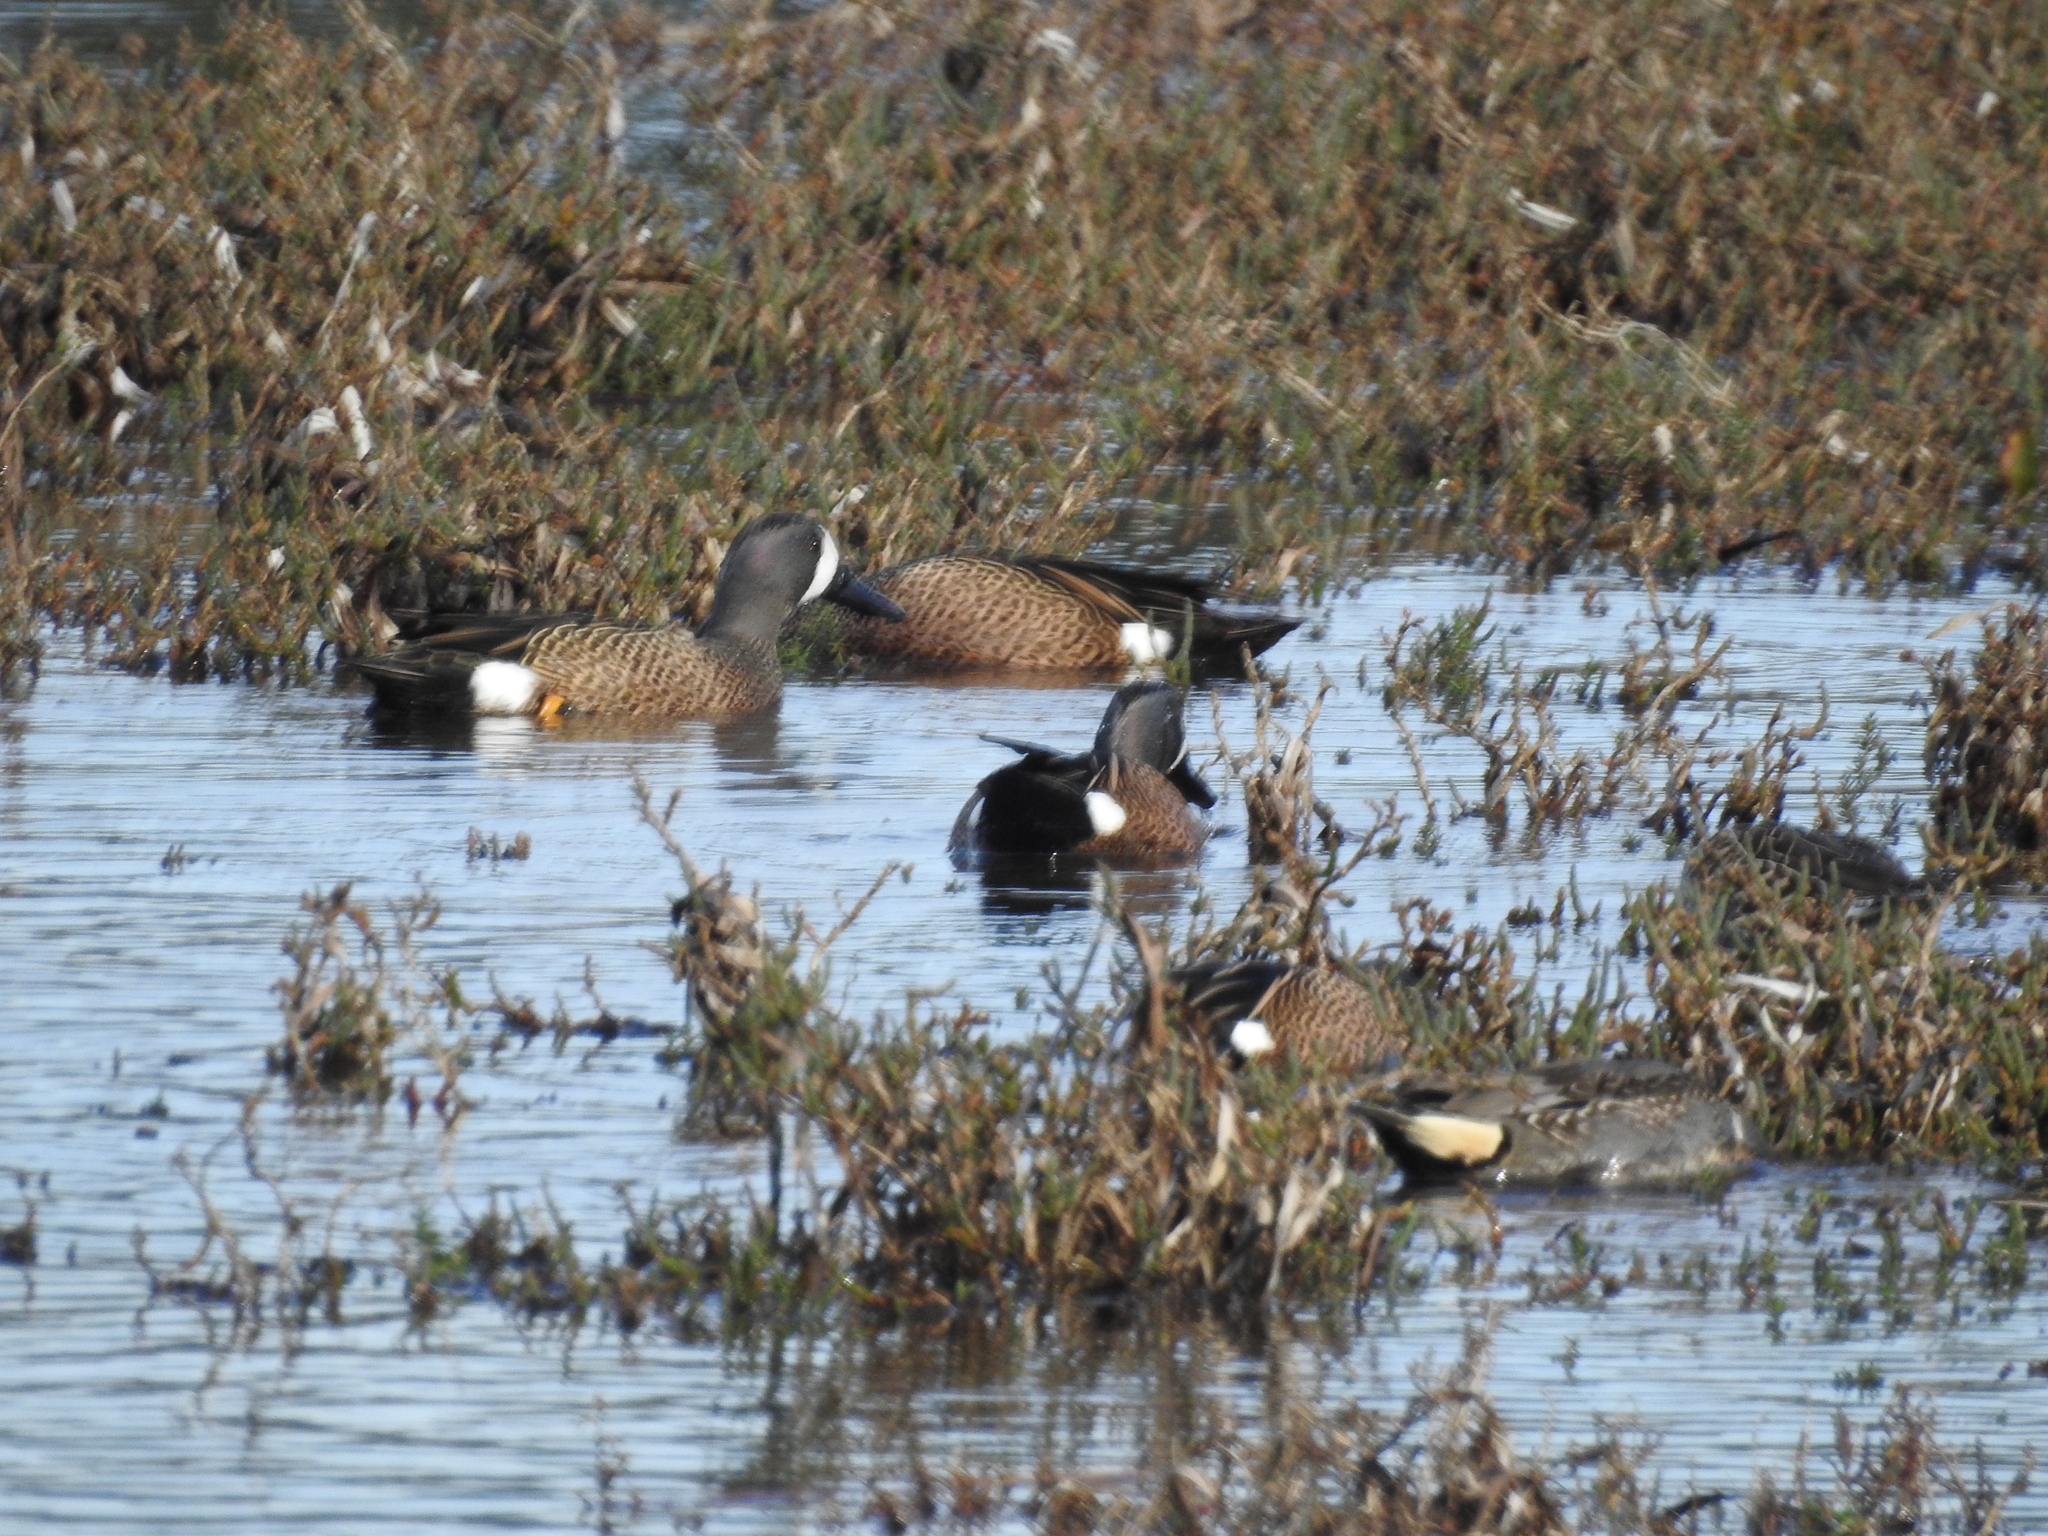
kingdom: Animalia
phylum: Chordata
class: Aves
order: Anseriformes
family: Anatidae
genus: Spatula
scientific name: Spatula discors
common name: Blue-winged teal
